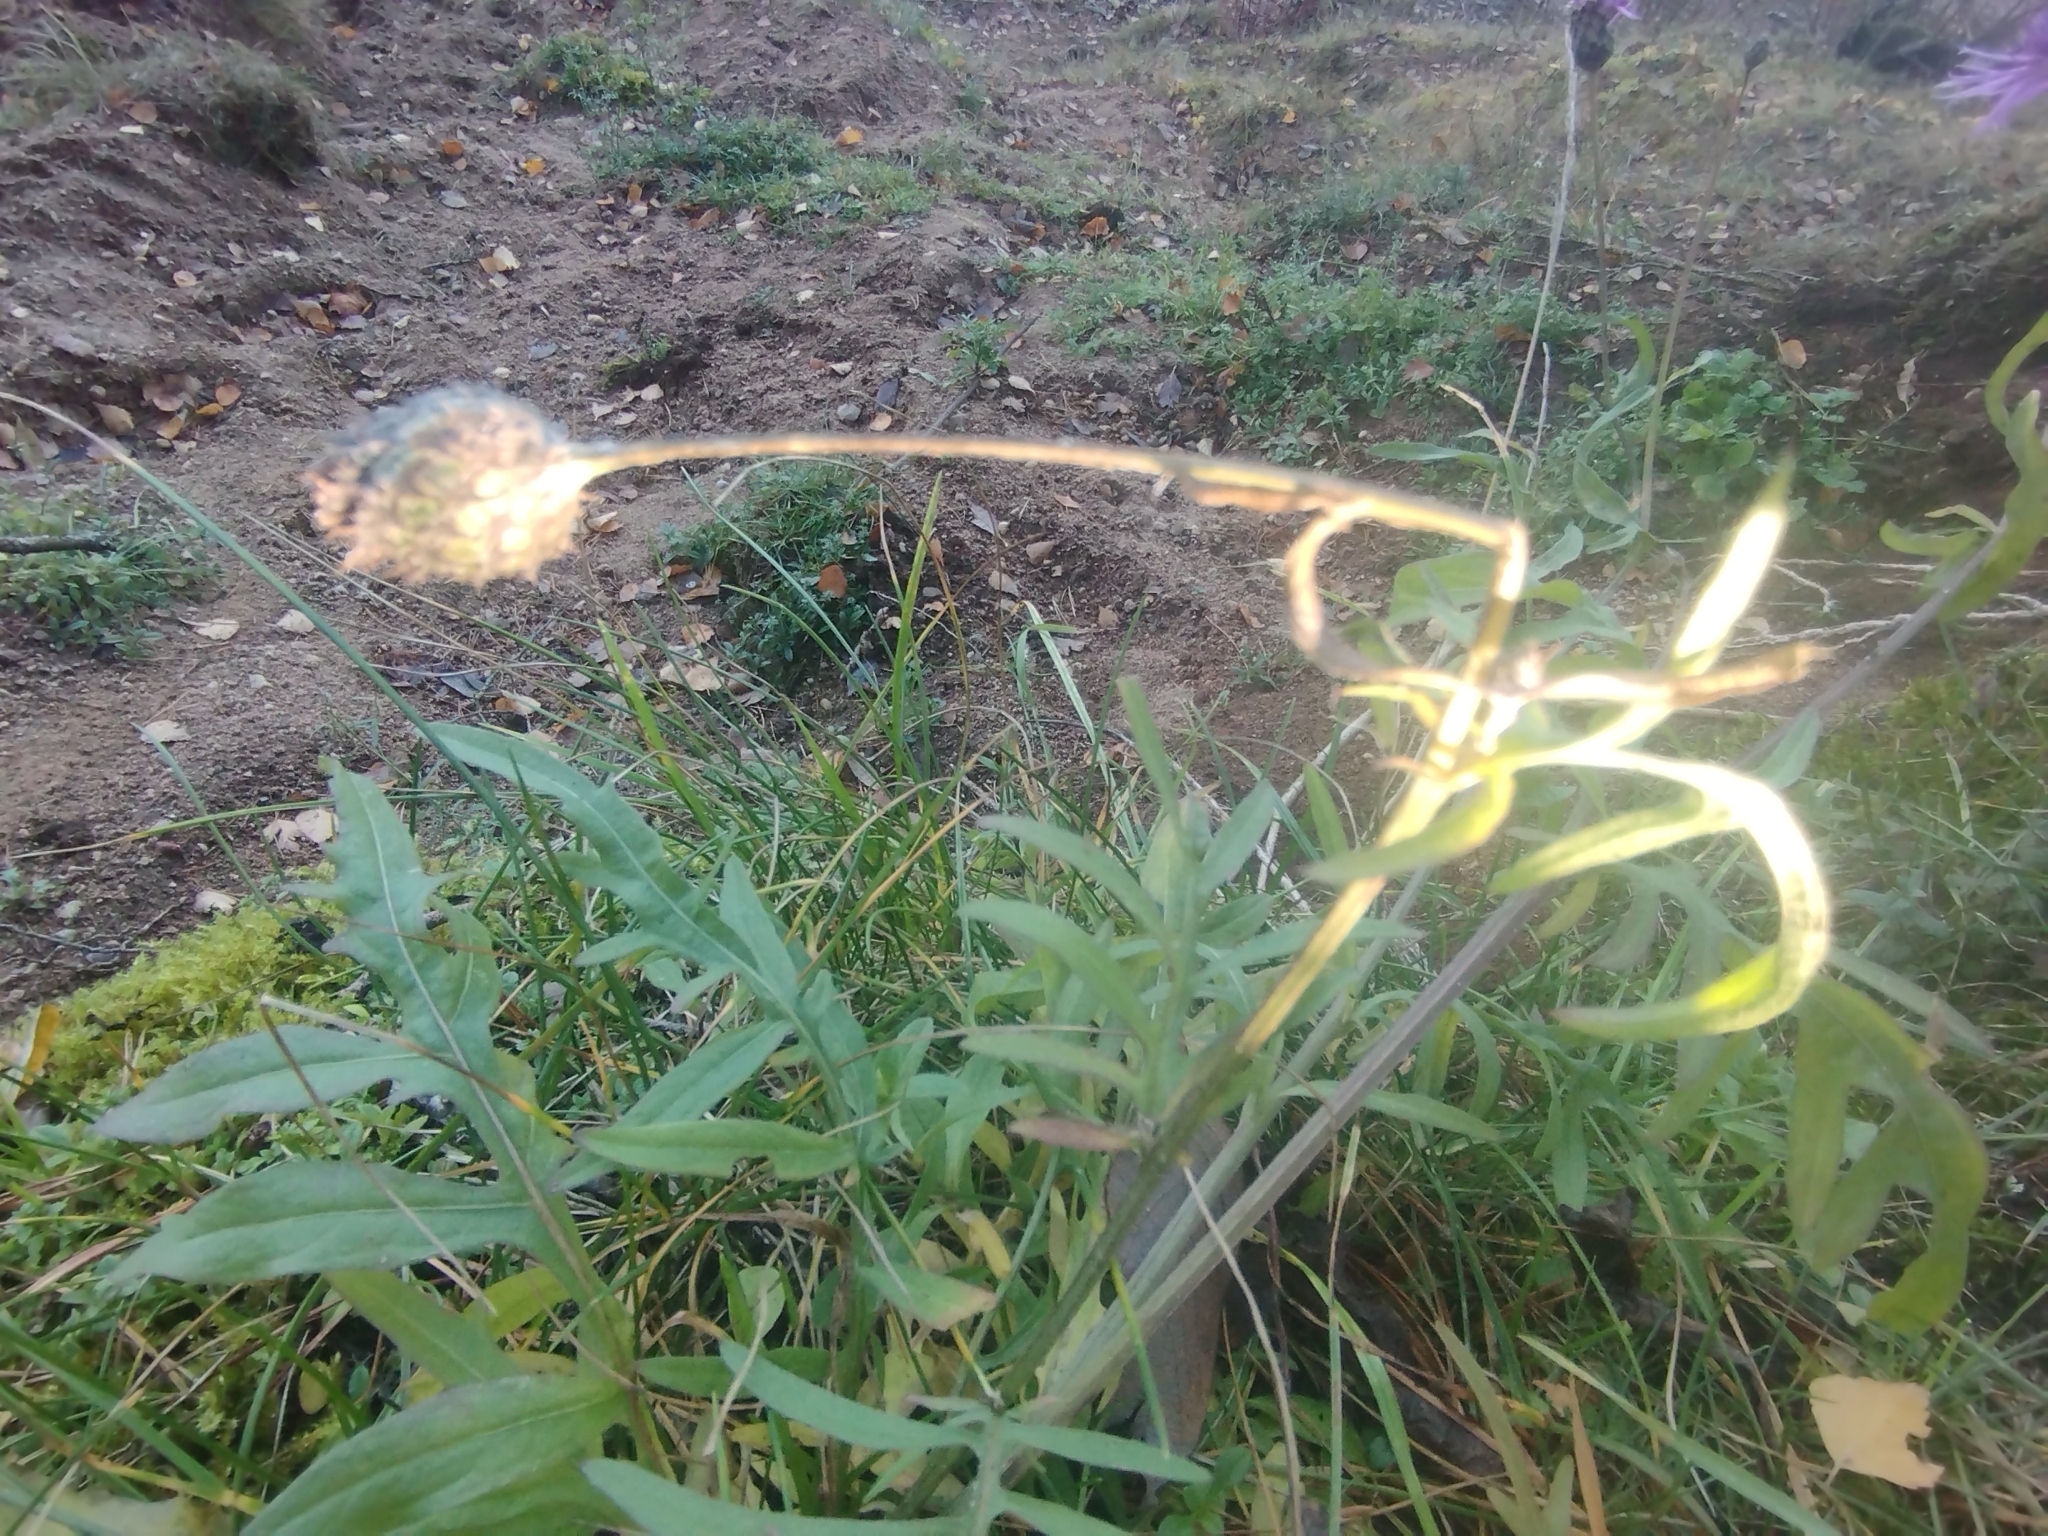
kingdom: Plantae
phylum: Tracheophyta
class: Magnoliopsida
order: Asterales
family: Asteraceae
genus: Centaurea
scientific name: Centaurea scabiosa
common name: Greater knapweed
